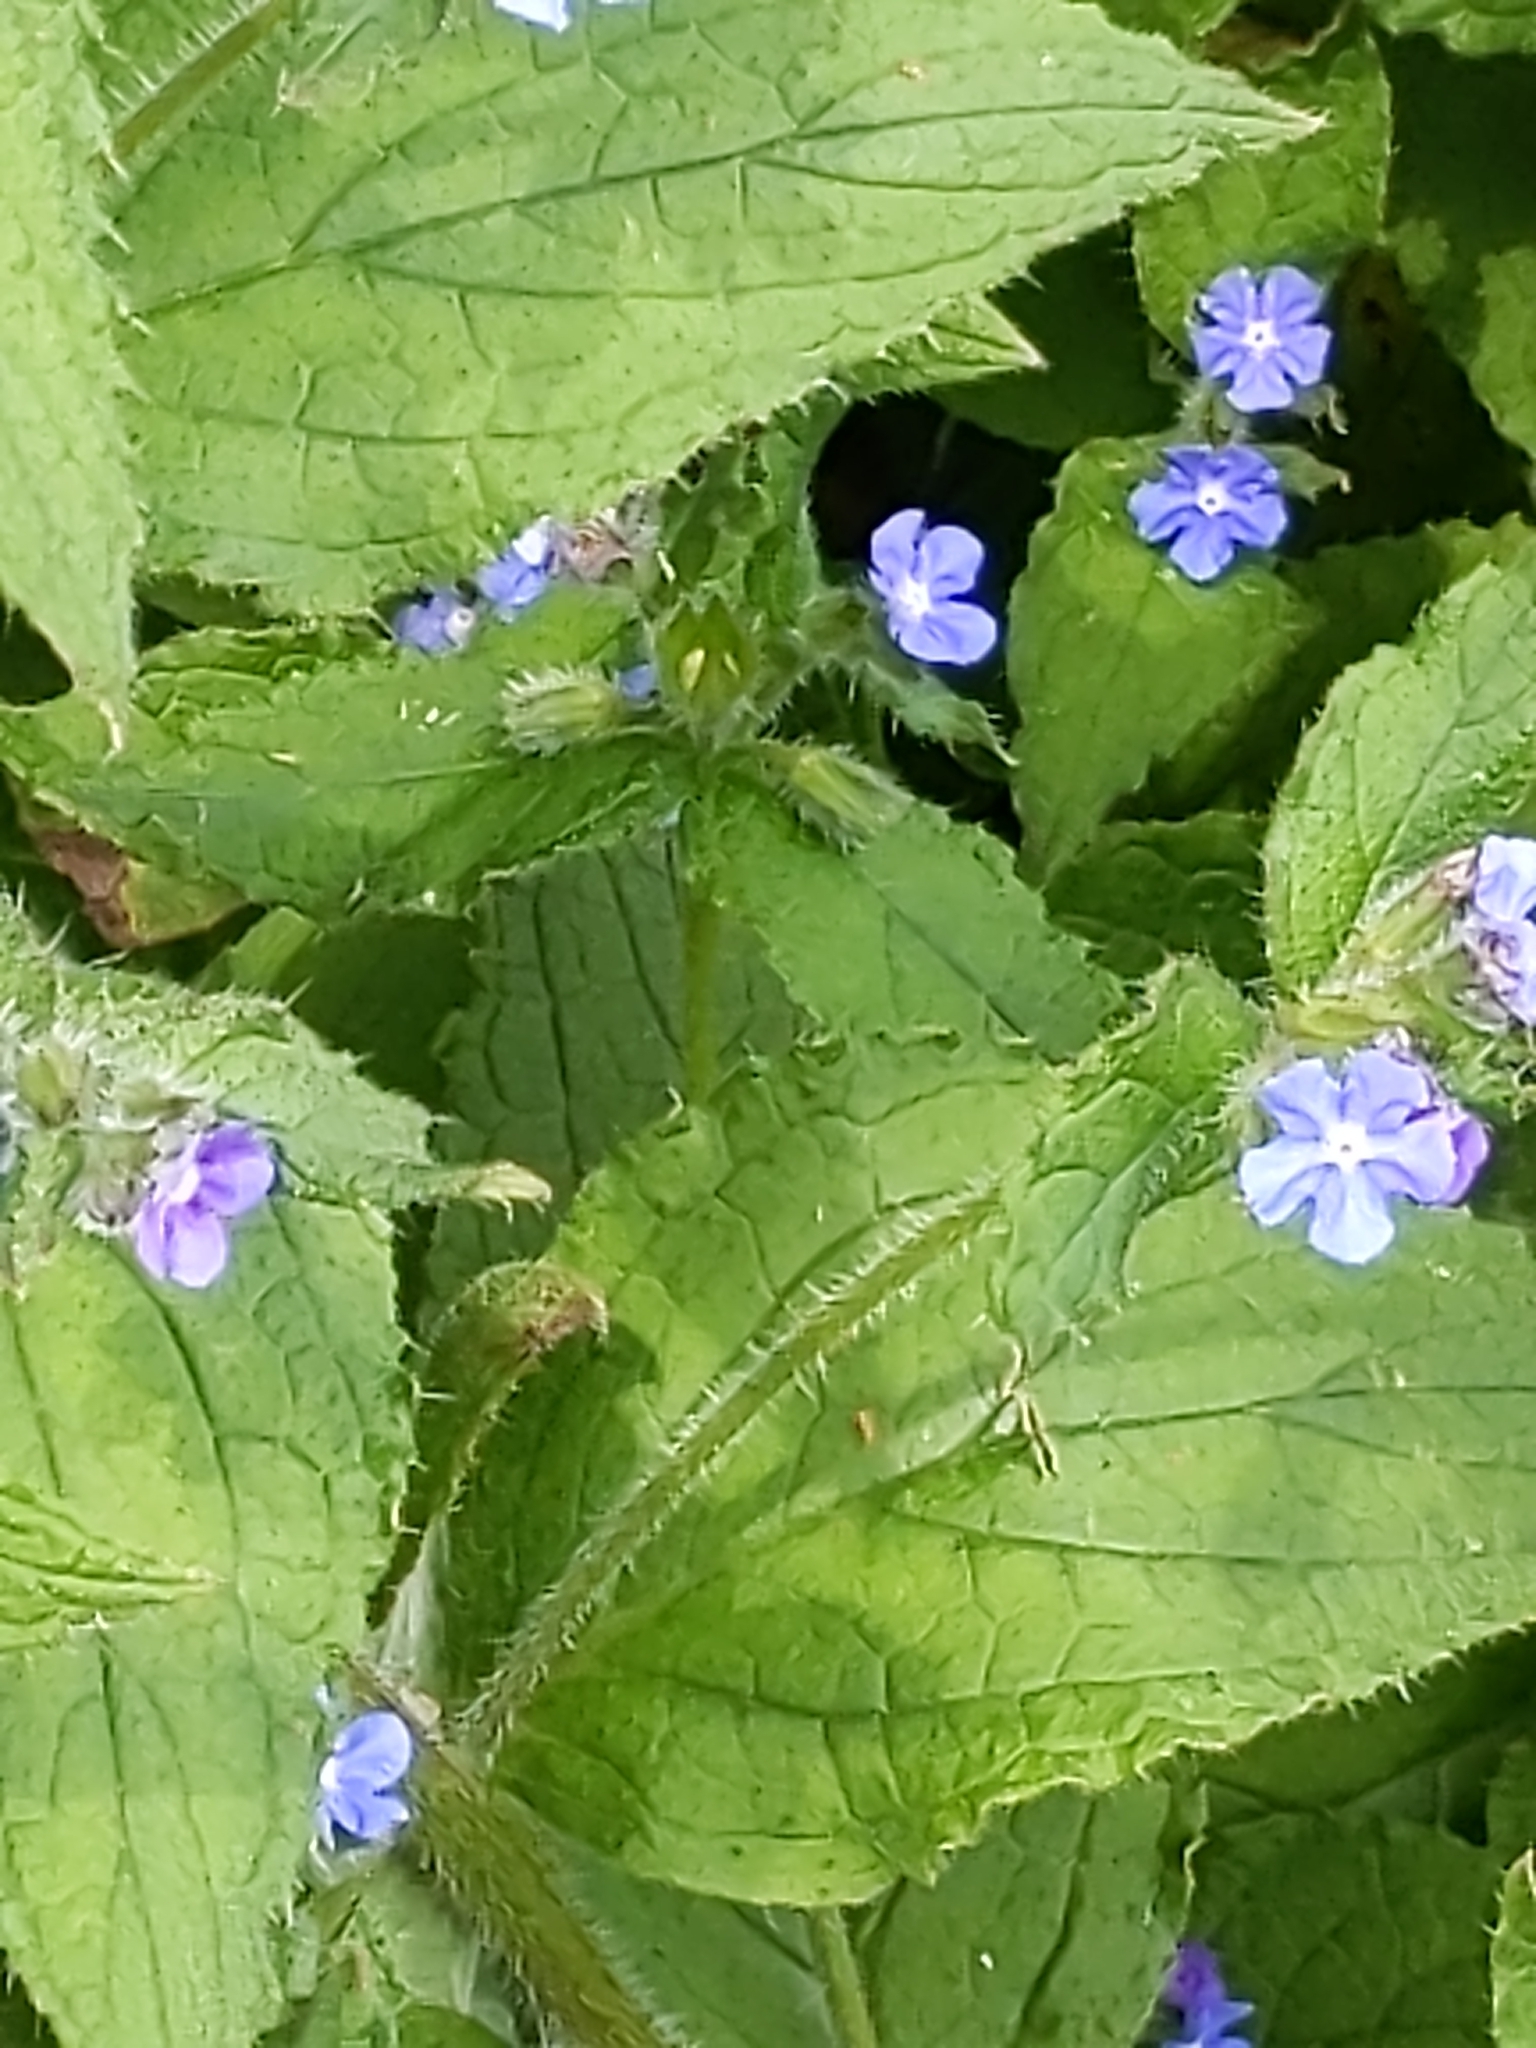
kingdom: Plantae
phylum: Tracheophyta
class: Magnoliopsida
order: Boraginales
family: Boraginaceae
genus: Pentaglottis
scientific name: Pentaglottis sempervirens
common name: Green alkanet
